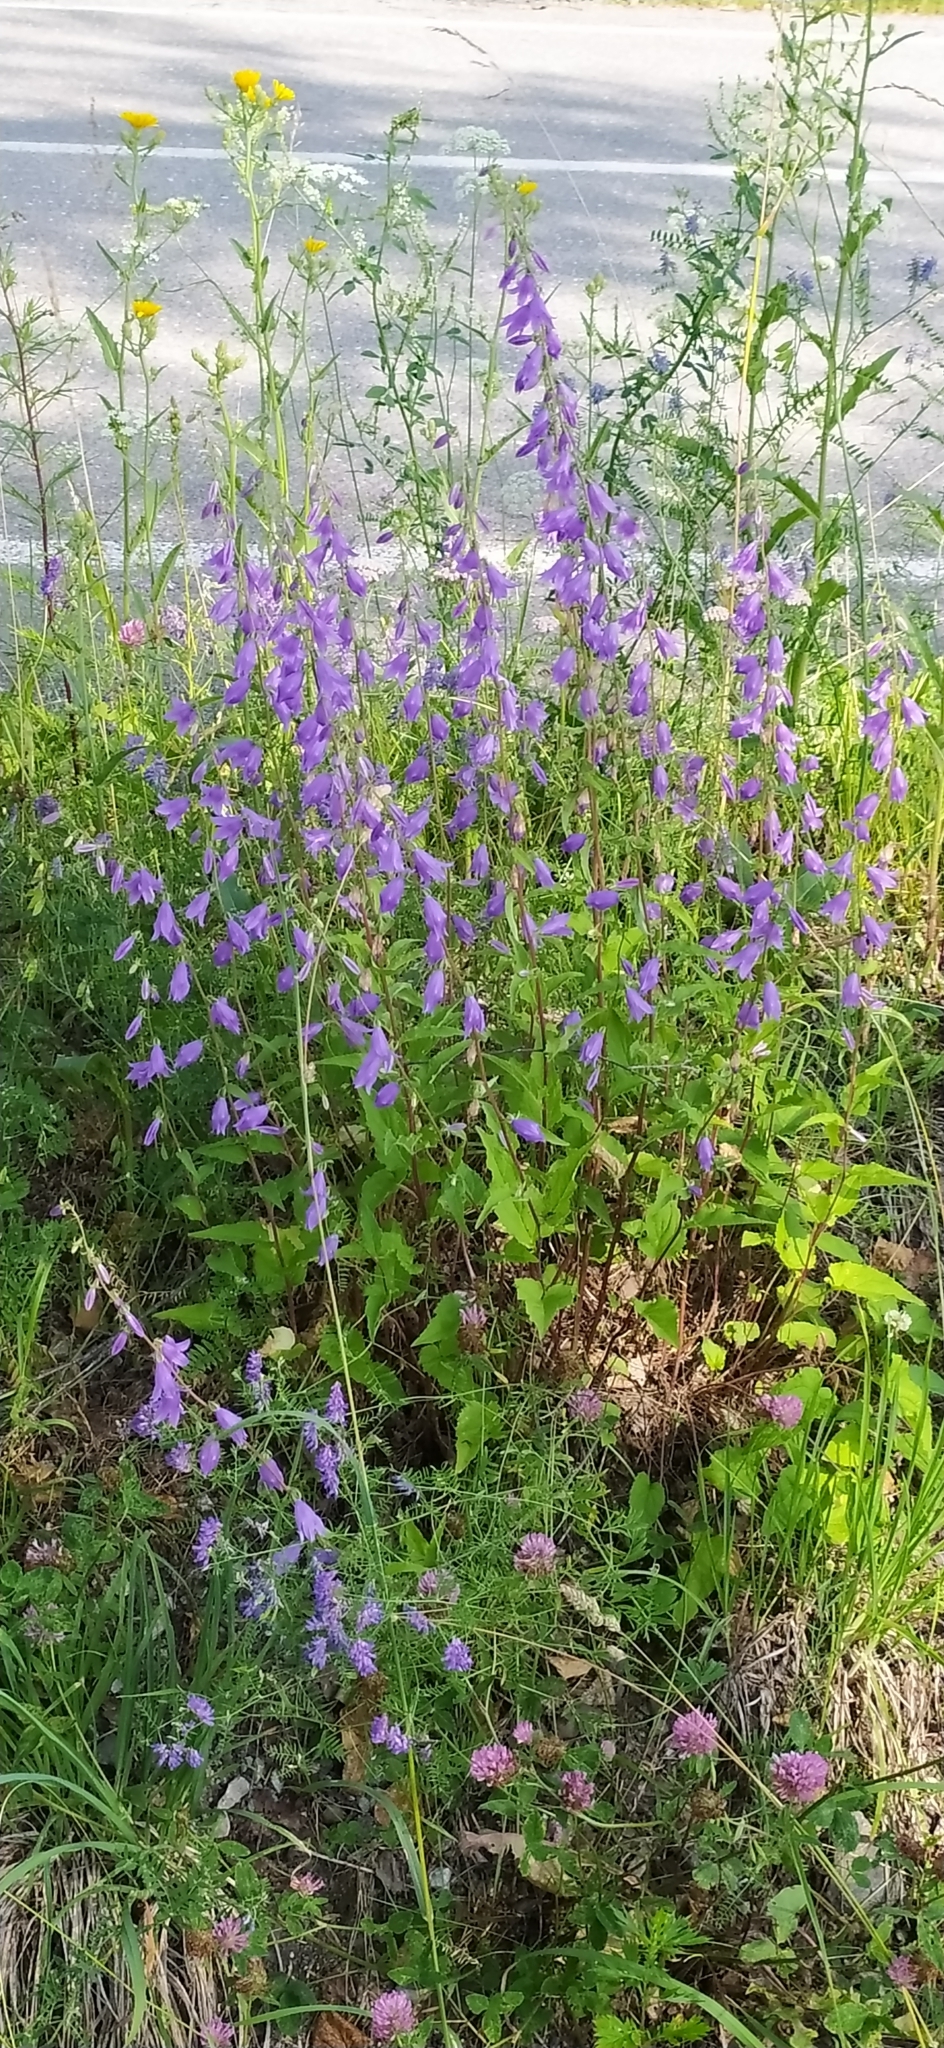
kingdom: Plantae
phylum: Tracheophyta
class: Magnoliopsida
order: Asterales
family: Campanulaceae
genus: Campanula
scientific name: Campanula rapunculoides
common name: Creeping bellflower
